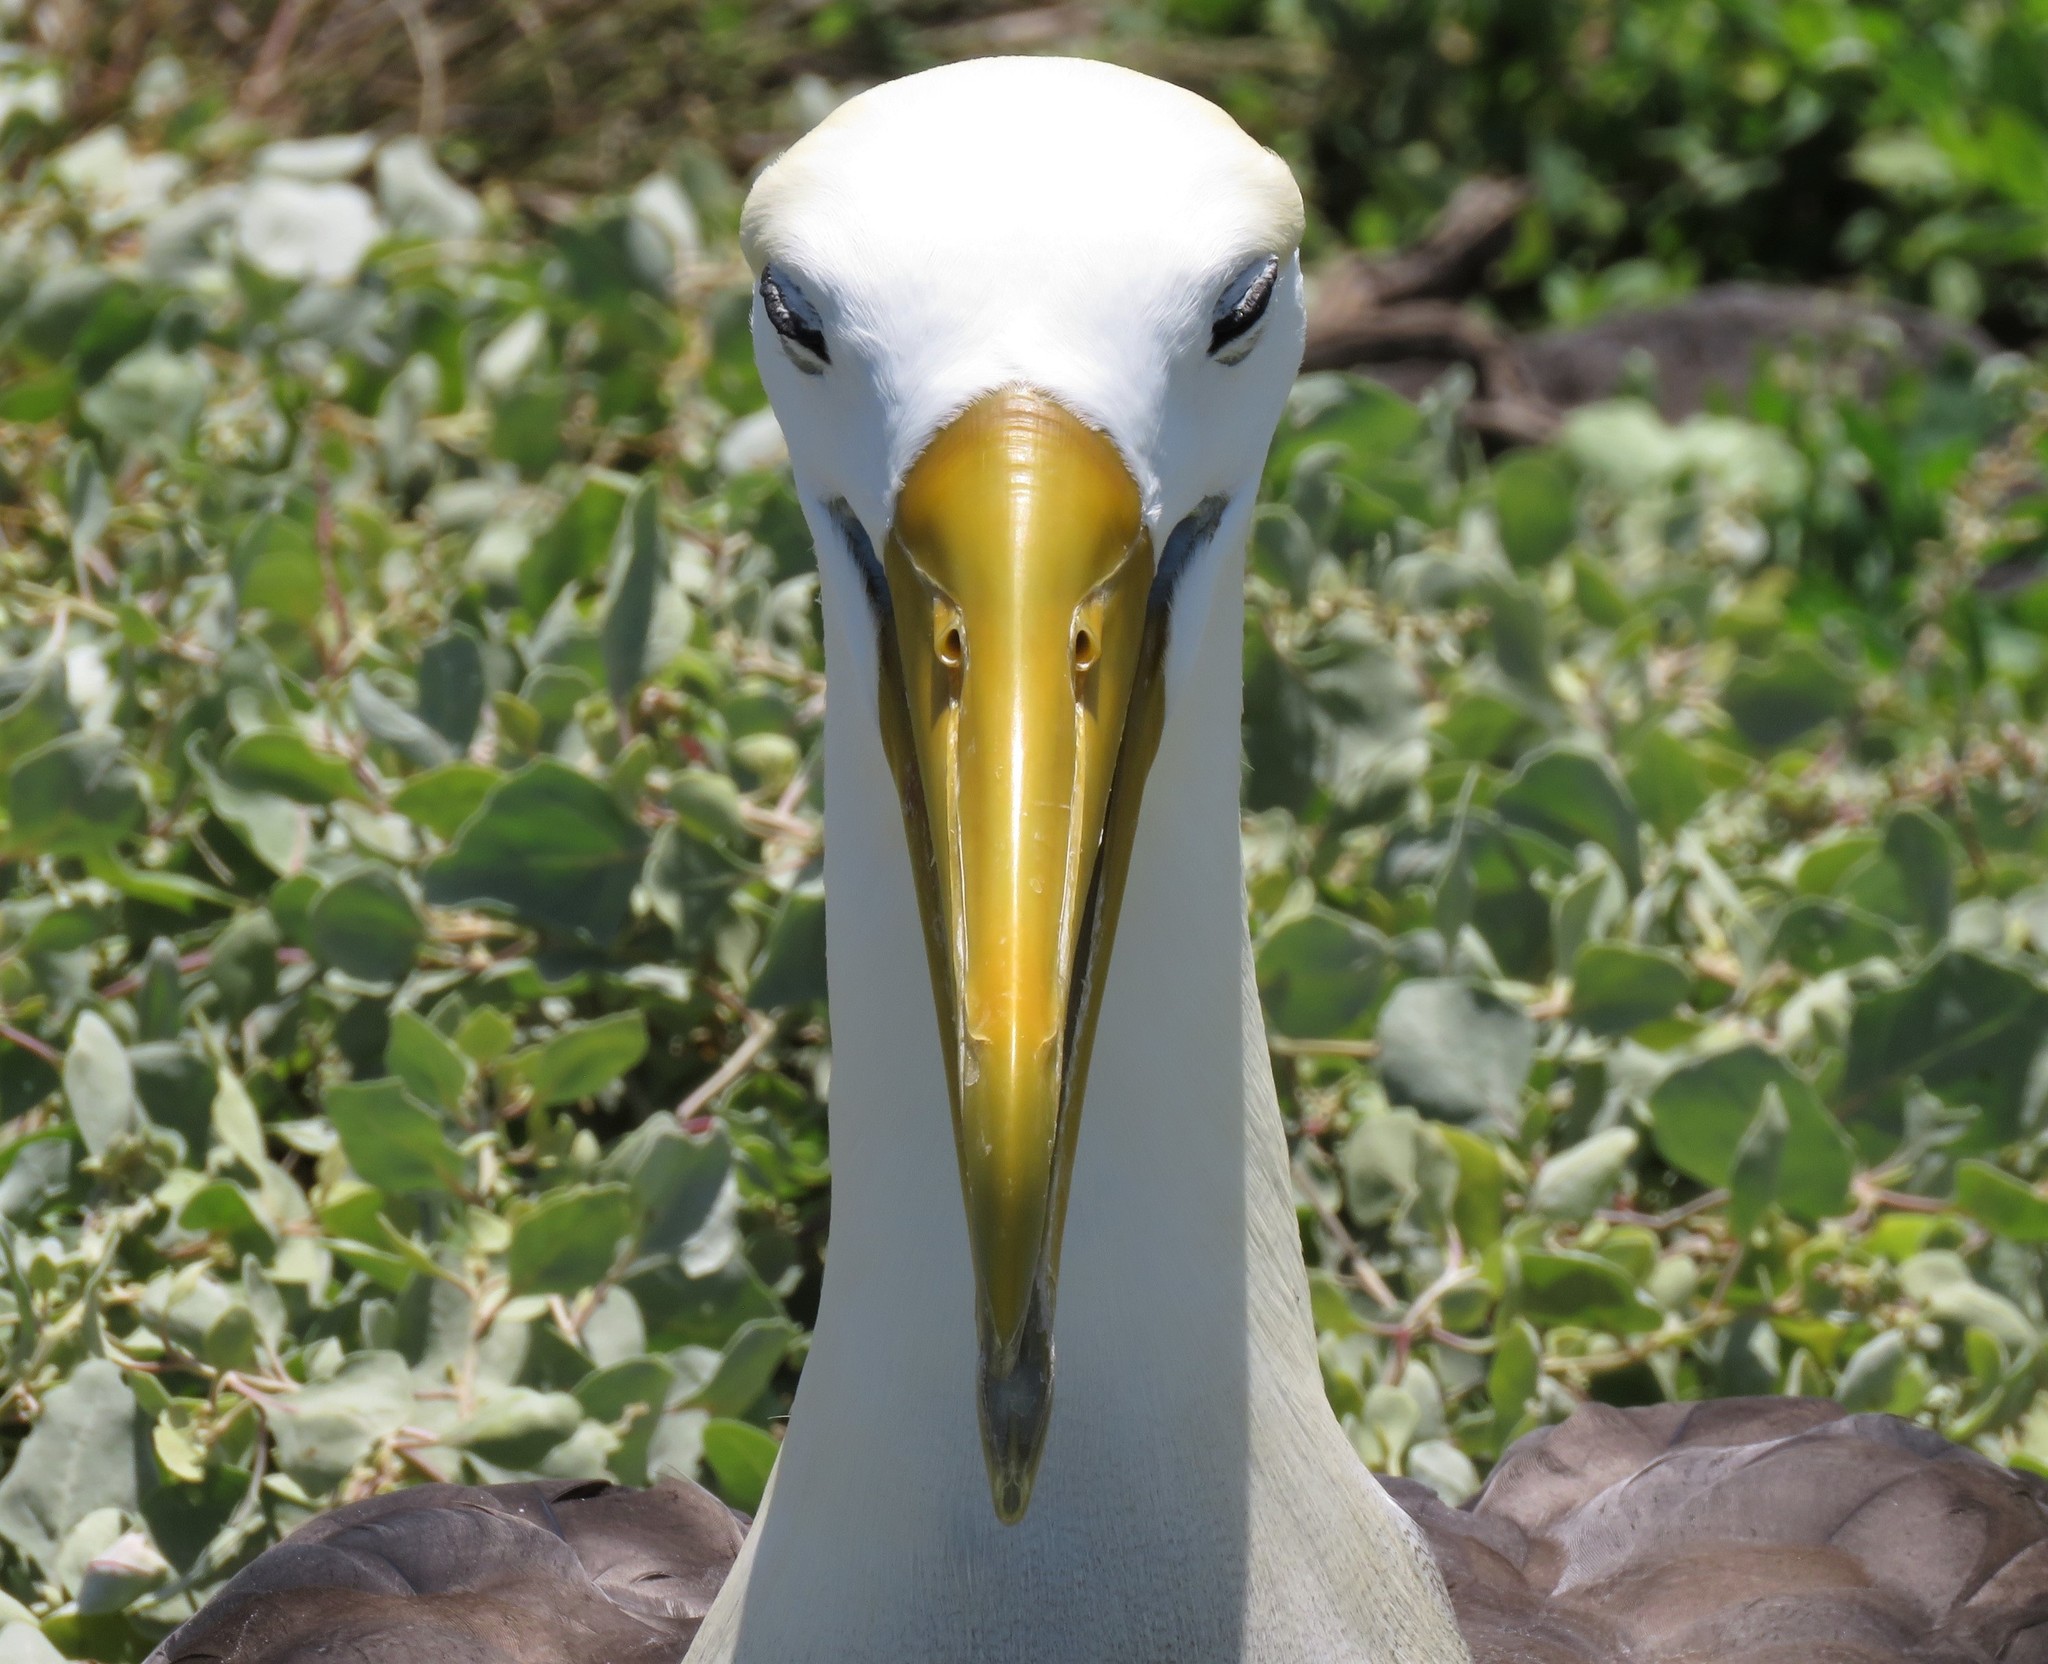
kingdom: Animalia
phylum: Chordata
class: Aves
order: Procellariiformes
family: Diomedeidae
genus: Phoebastria
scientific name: Phoebastria irrorata
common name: Waved albatross
